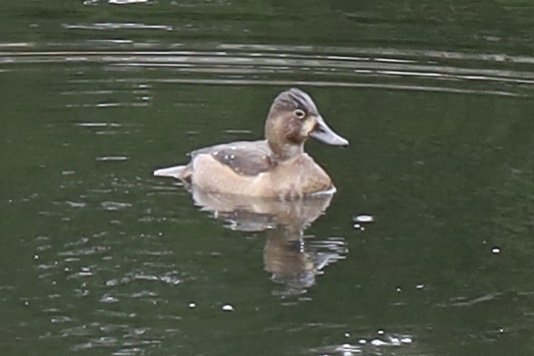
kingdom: Animalia
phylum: Chordata
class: Aves
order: Anseriformes
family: Anatidae
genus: Aythya
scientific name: Aythya collaris
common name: Ring-necked duck
